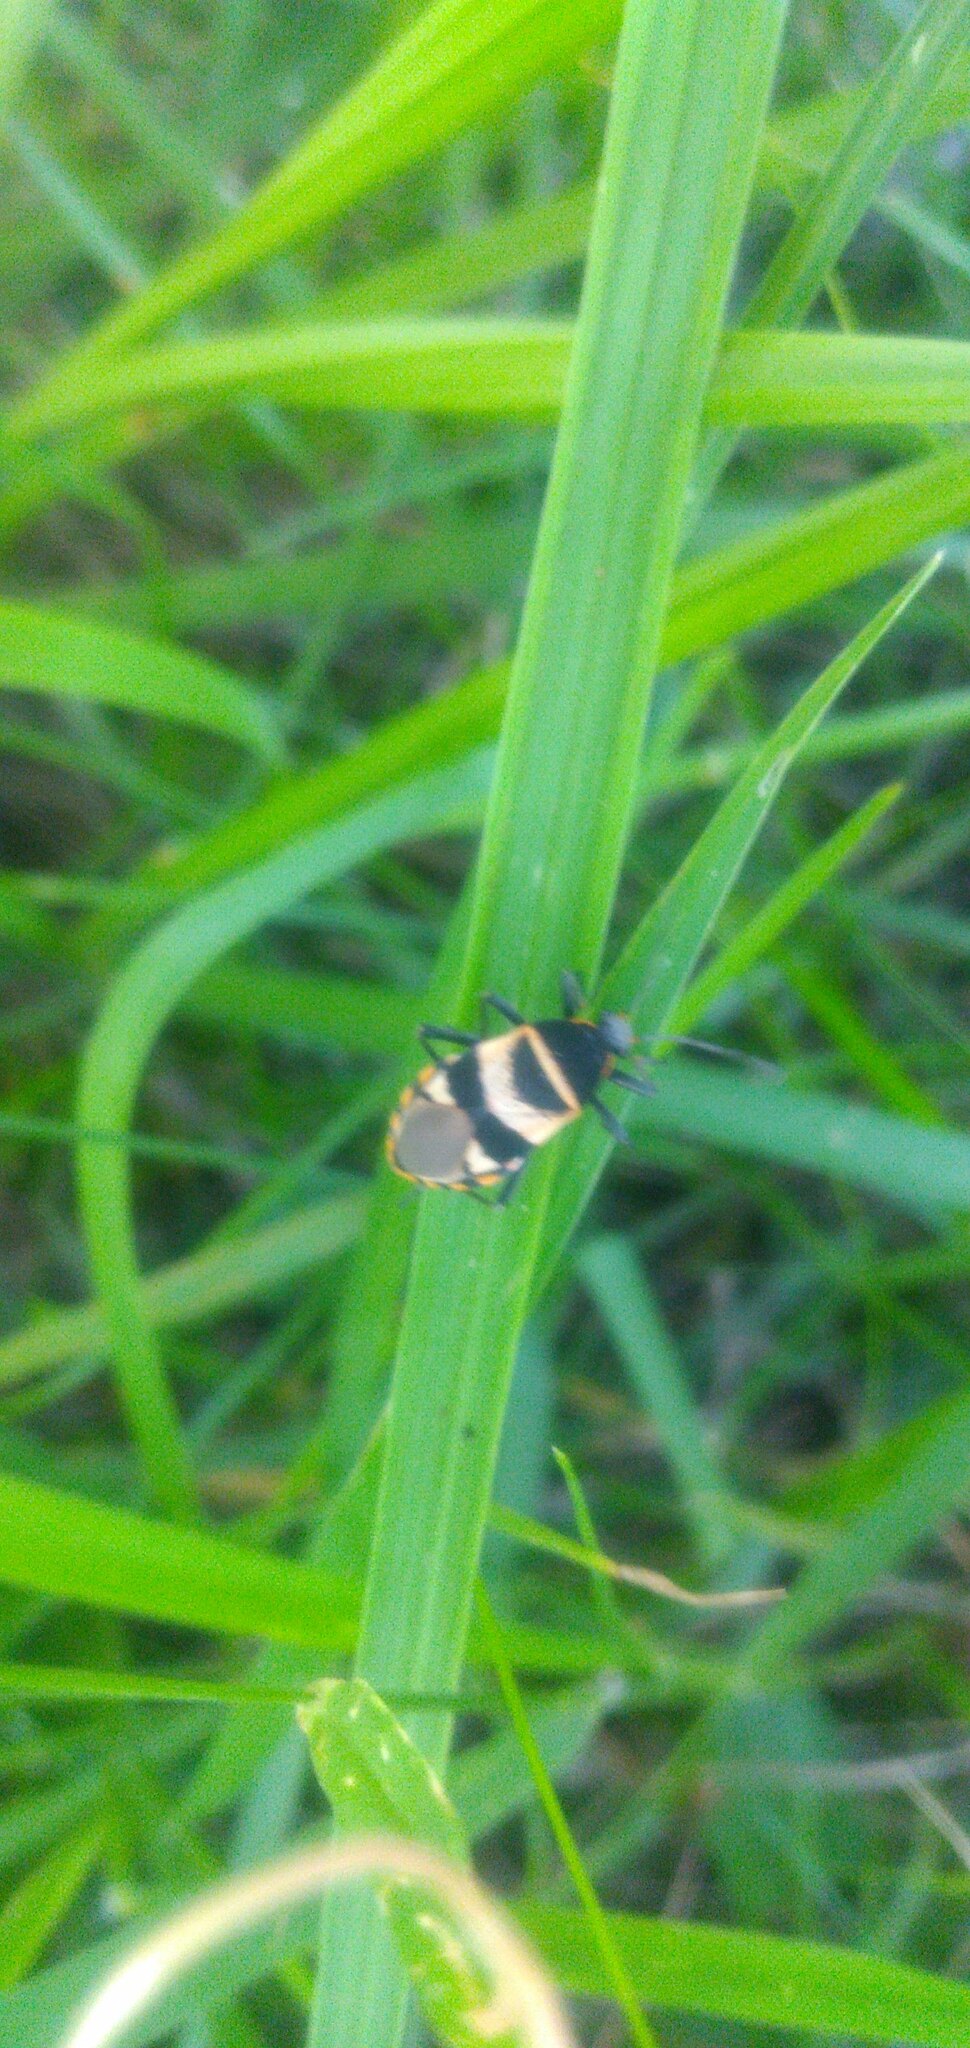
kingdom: Animalia
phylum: Arthropoda
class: Insecta
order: Hemiptera
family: Largidae
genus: Largus
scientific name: Largus fasciatus
